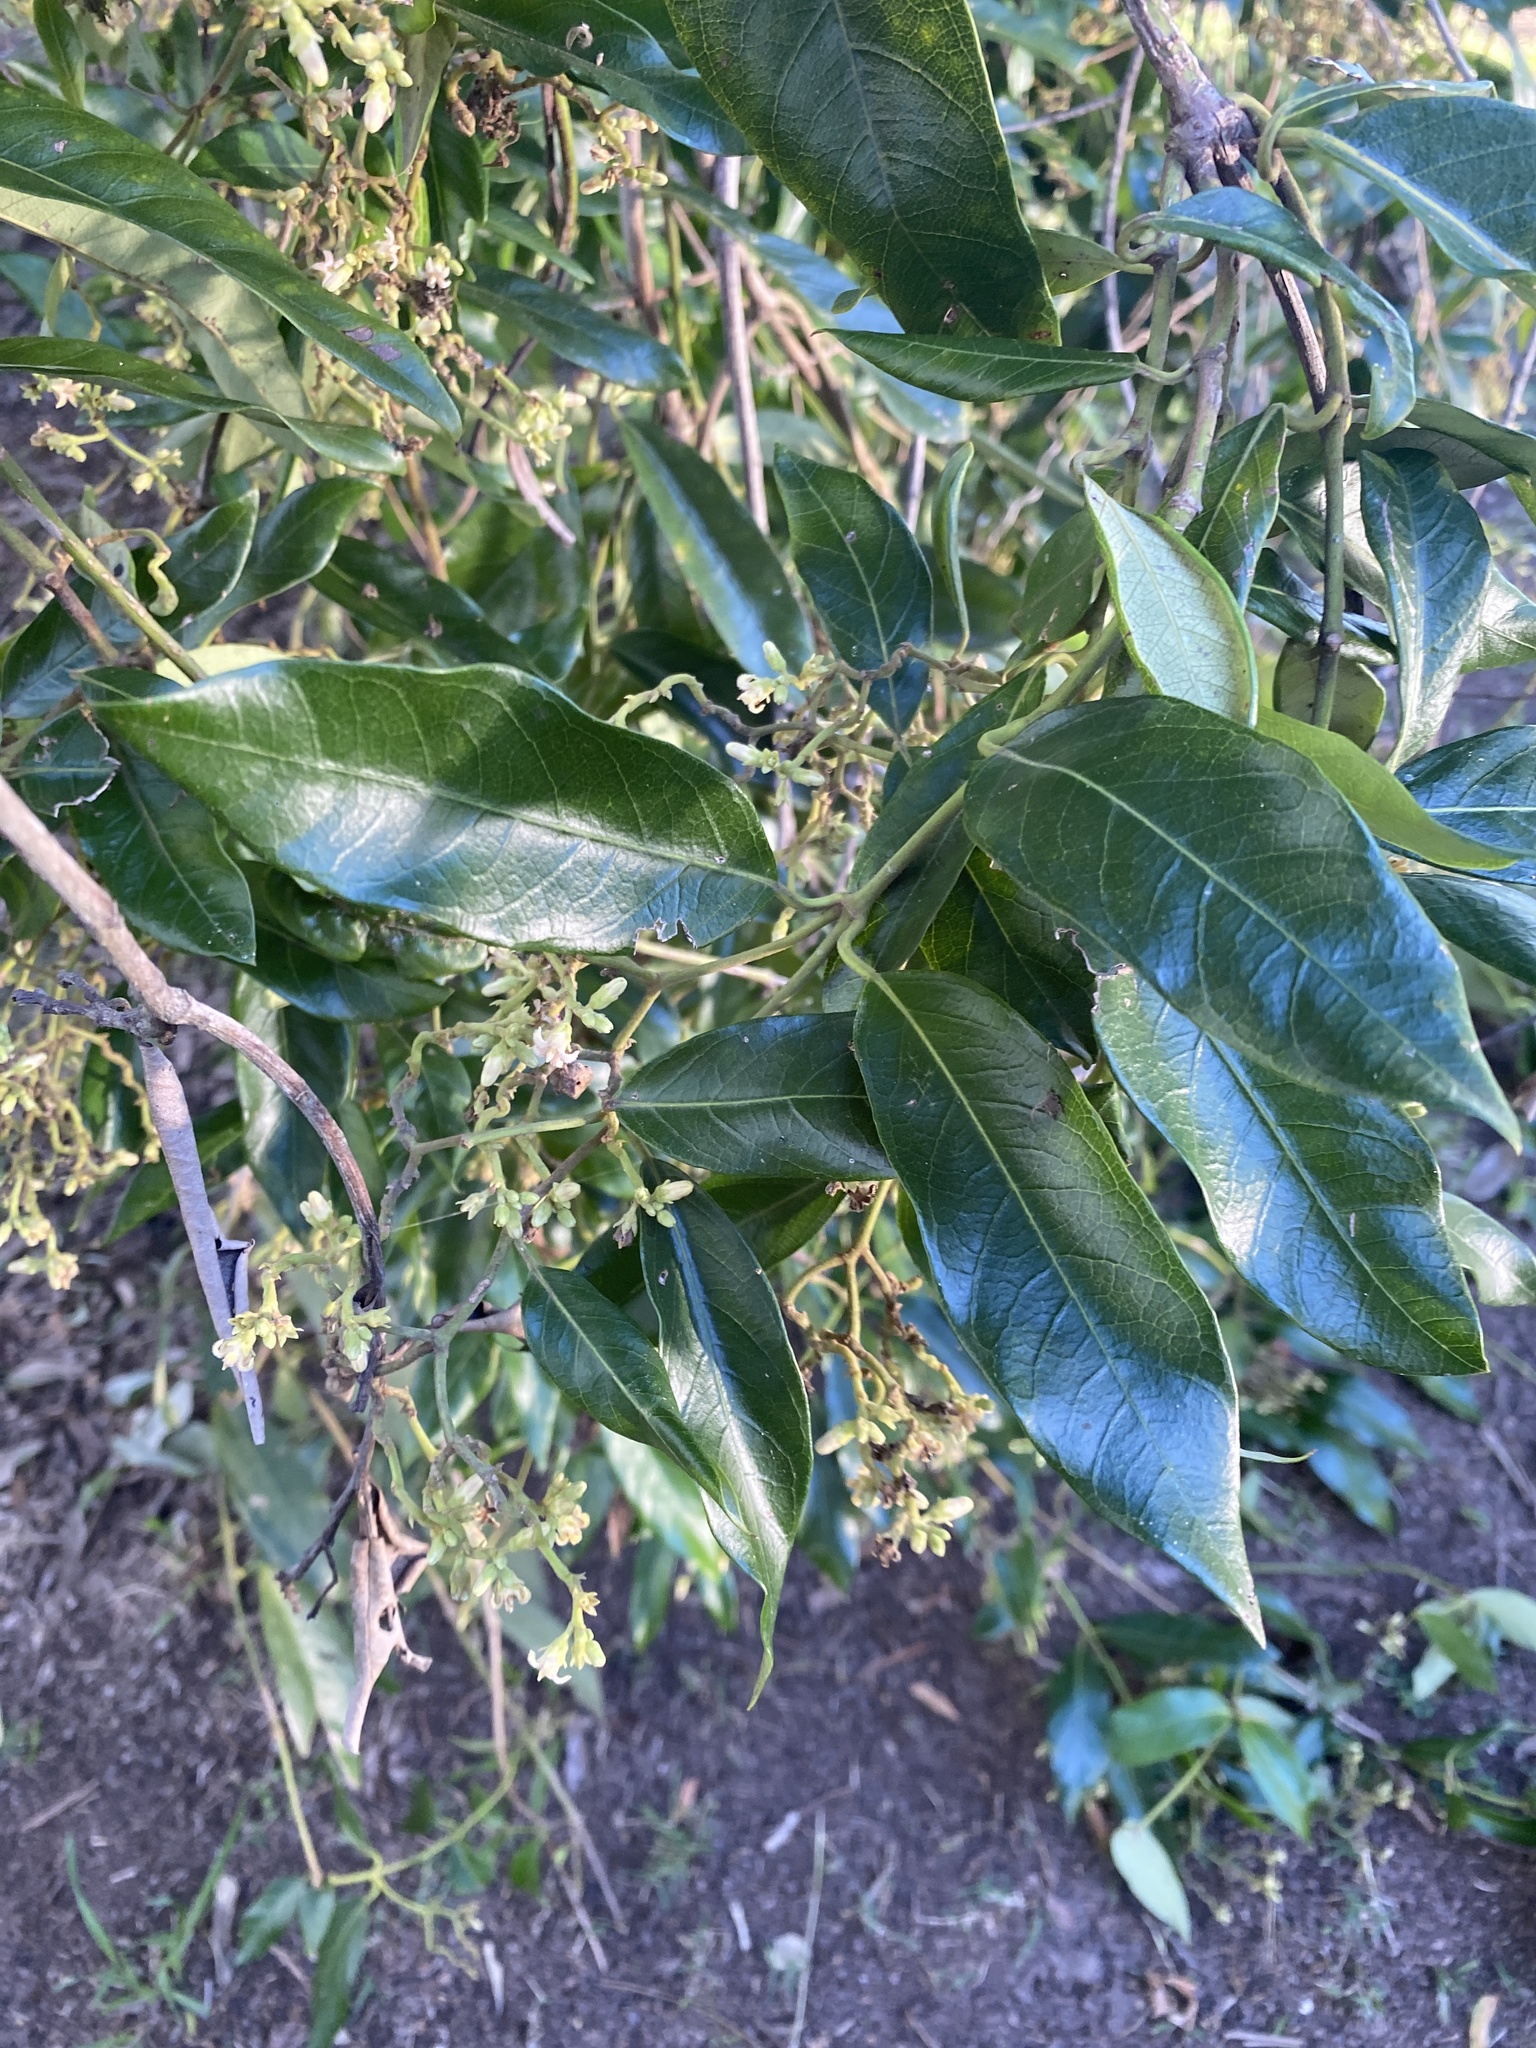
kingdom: Plantae
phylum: Tracheophyta
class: Magnoliopsida
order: Gentianales
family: Apocynaceae
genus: Parsonsia
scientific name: Parsonsia straminea
